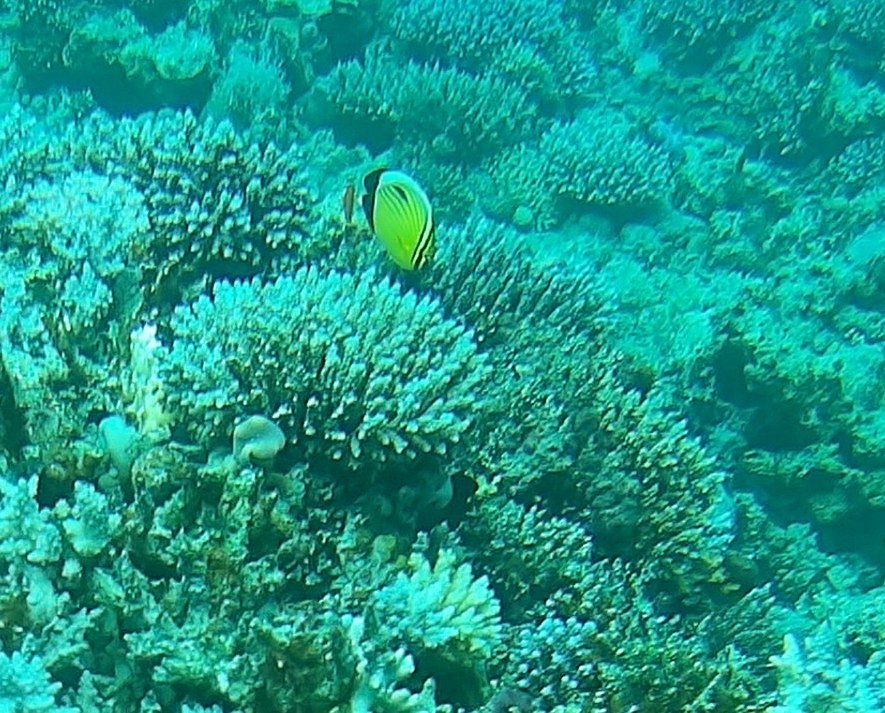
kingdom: Animalia
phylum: Chordata
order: Perciformes
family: Chaetodontidae
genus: Chaetodon
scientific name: Chaetodon austriacus
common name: Exquisite butterflyfish
